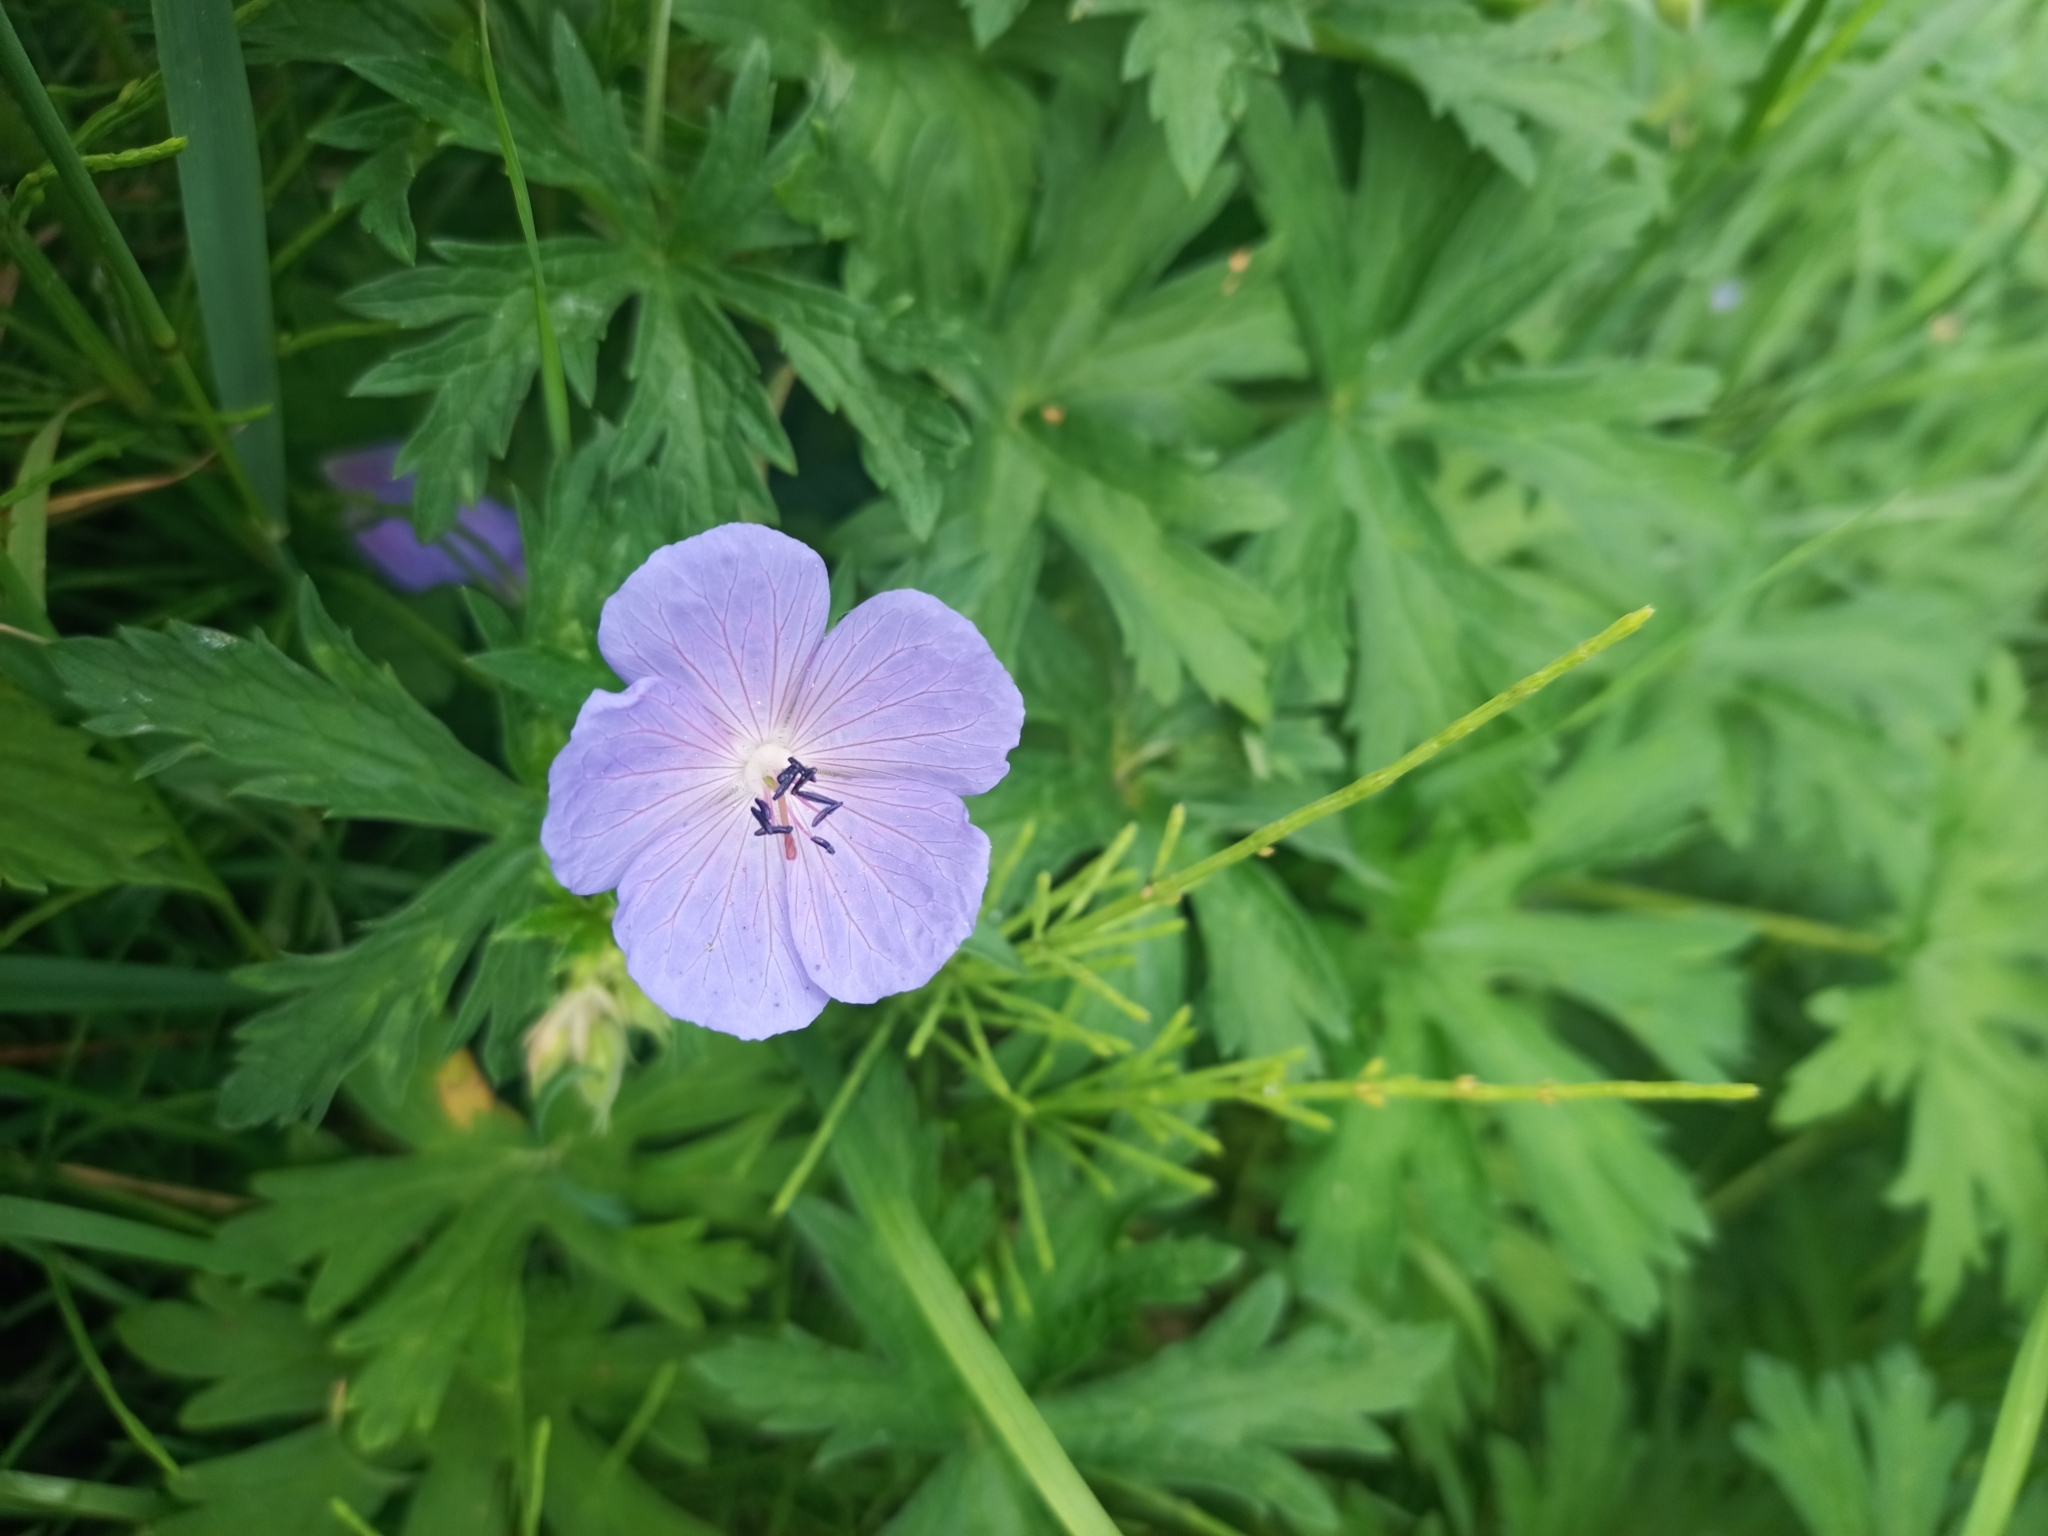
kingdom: Plantae
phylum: Tracheophyta
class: Magnoliopsida
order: Geraniales
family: Geraniaceae
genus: Geranium
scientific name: Geranium pratense
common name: Meadow crane's-bill
